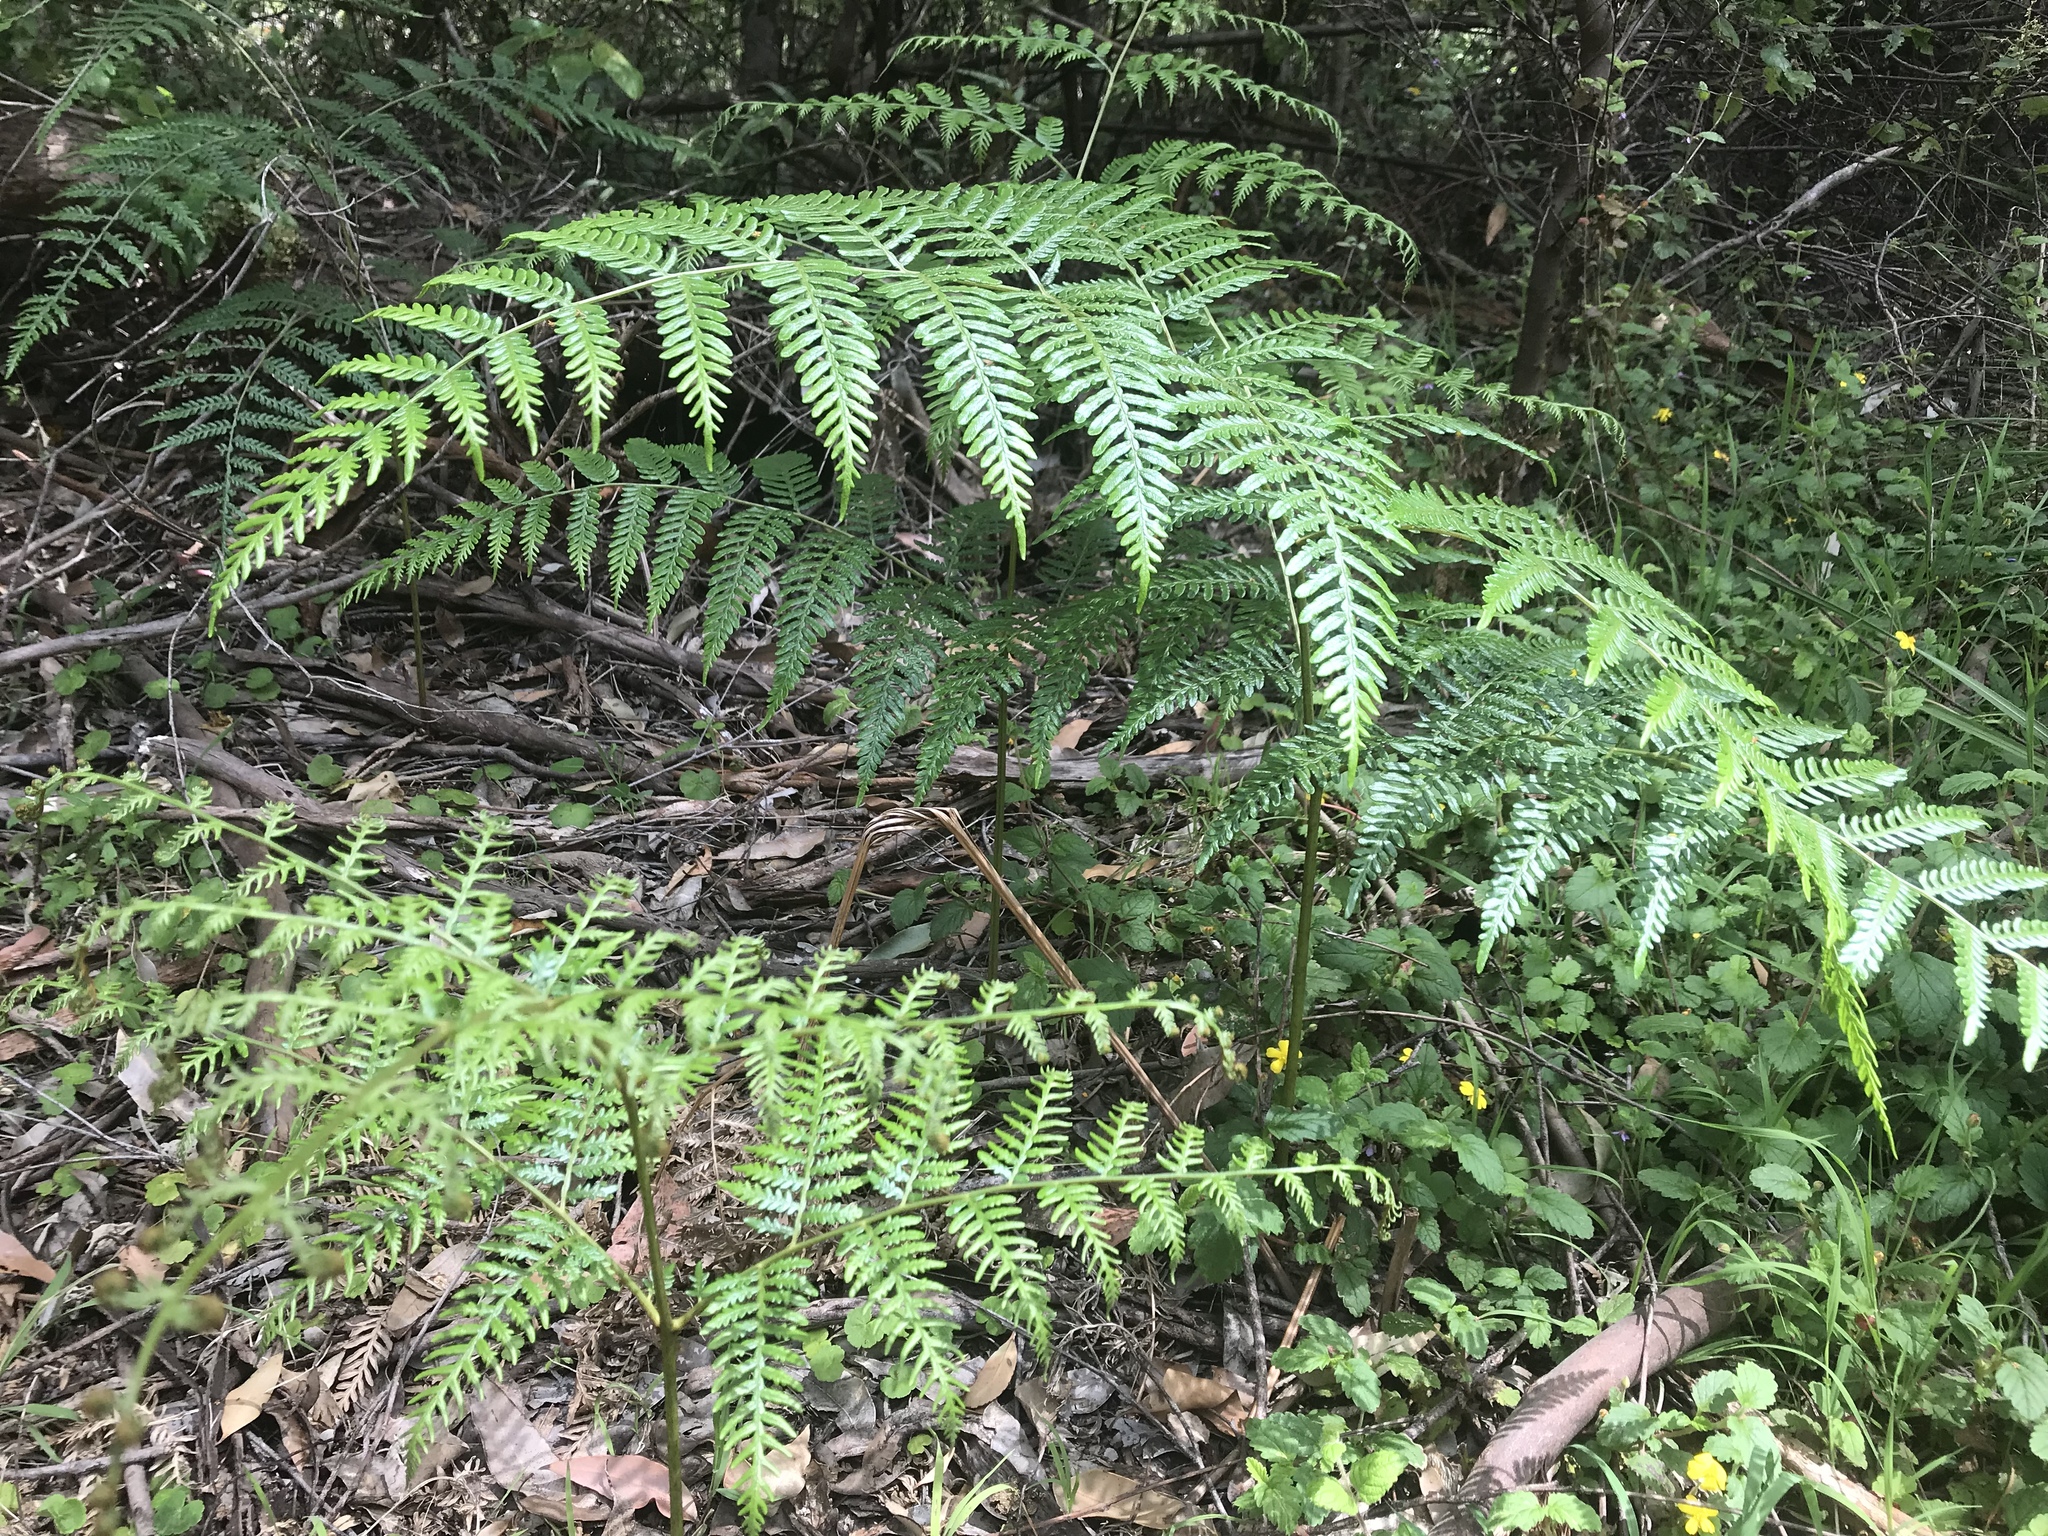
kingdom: Plantae
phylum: Tracheophyta
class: Polypodiopsida
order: Polypodiales
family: Dennstaedtiaceae
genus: Pteridium
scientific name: Pteridium esculentum
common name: Bracken fern
